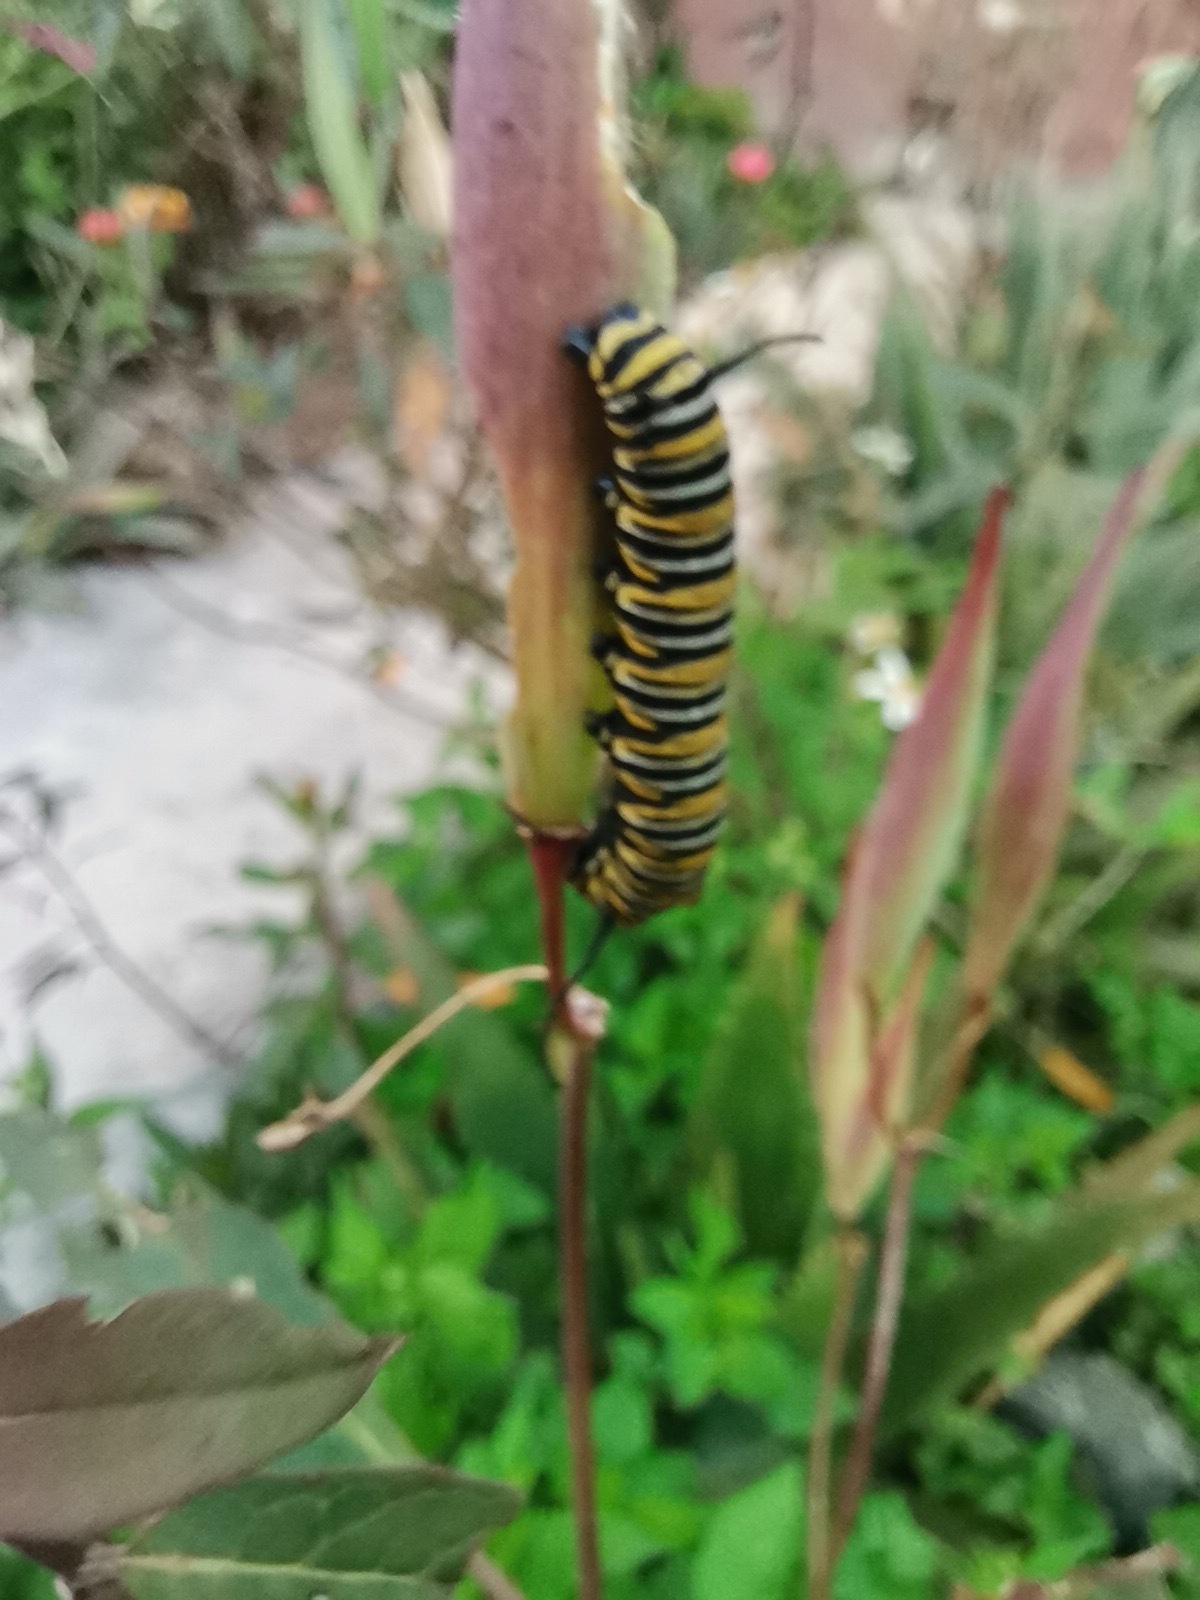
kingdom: Animalia
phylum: Arthropoda
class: Insecta
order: Lepidoptera
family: Nymphalidae
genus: Danaus
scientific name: Danaus plexippus
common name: Monarch
